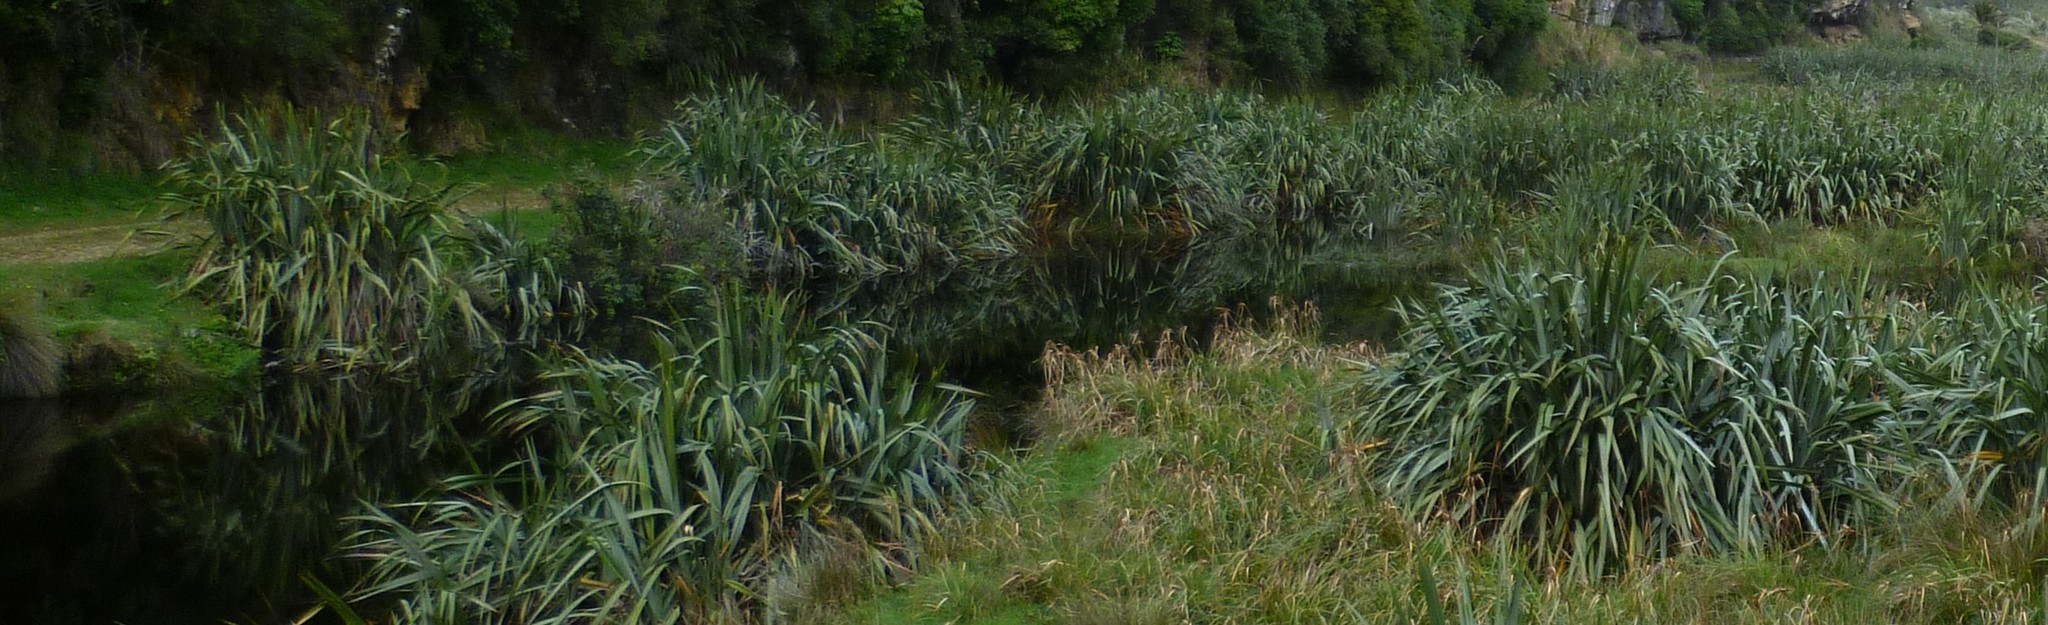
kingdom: Plantae
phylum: Tracheophyta
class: Liliopsida
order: Asparagales
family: Asphodelaceae
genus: Phormium
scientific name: Phormium tenax
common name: New zealand flax
